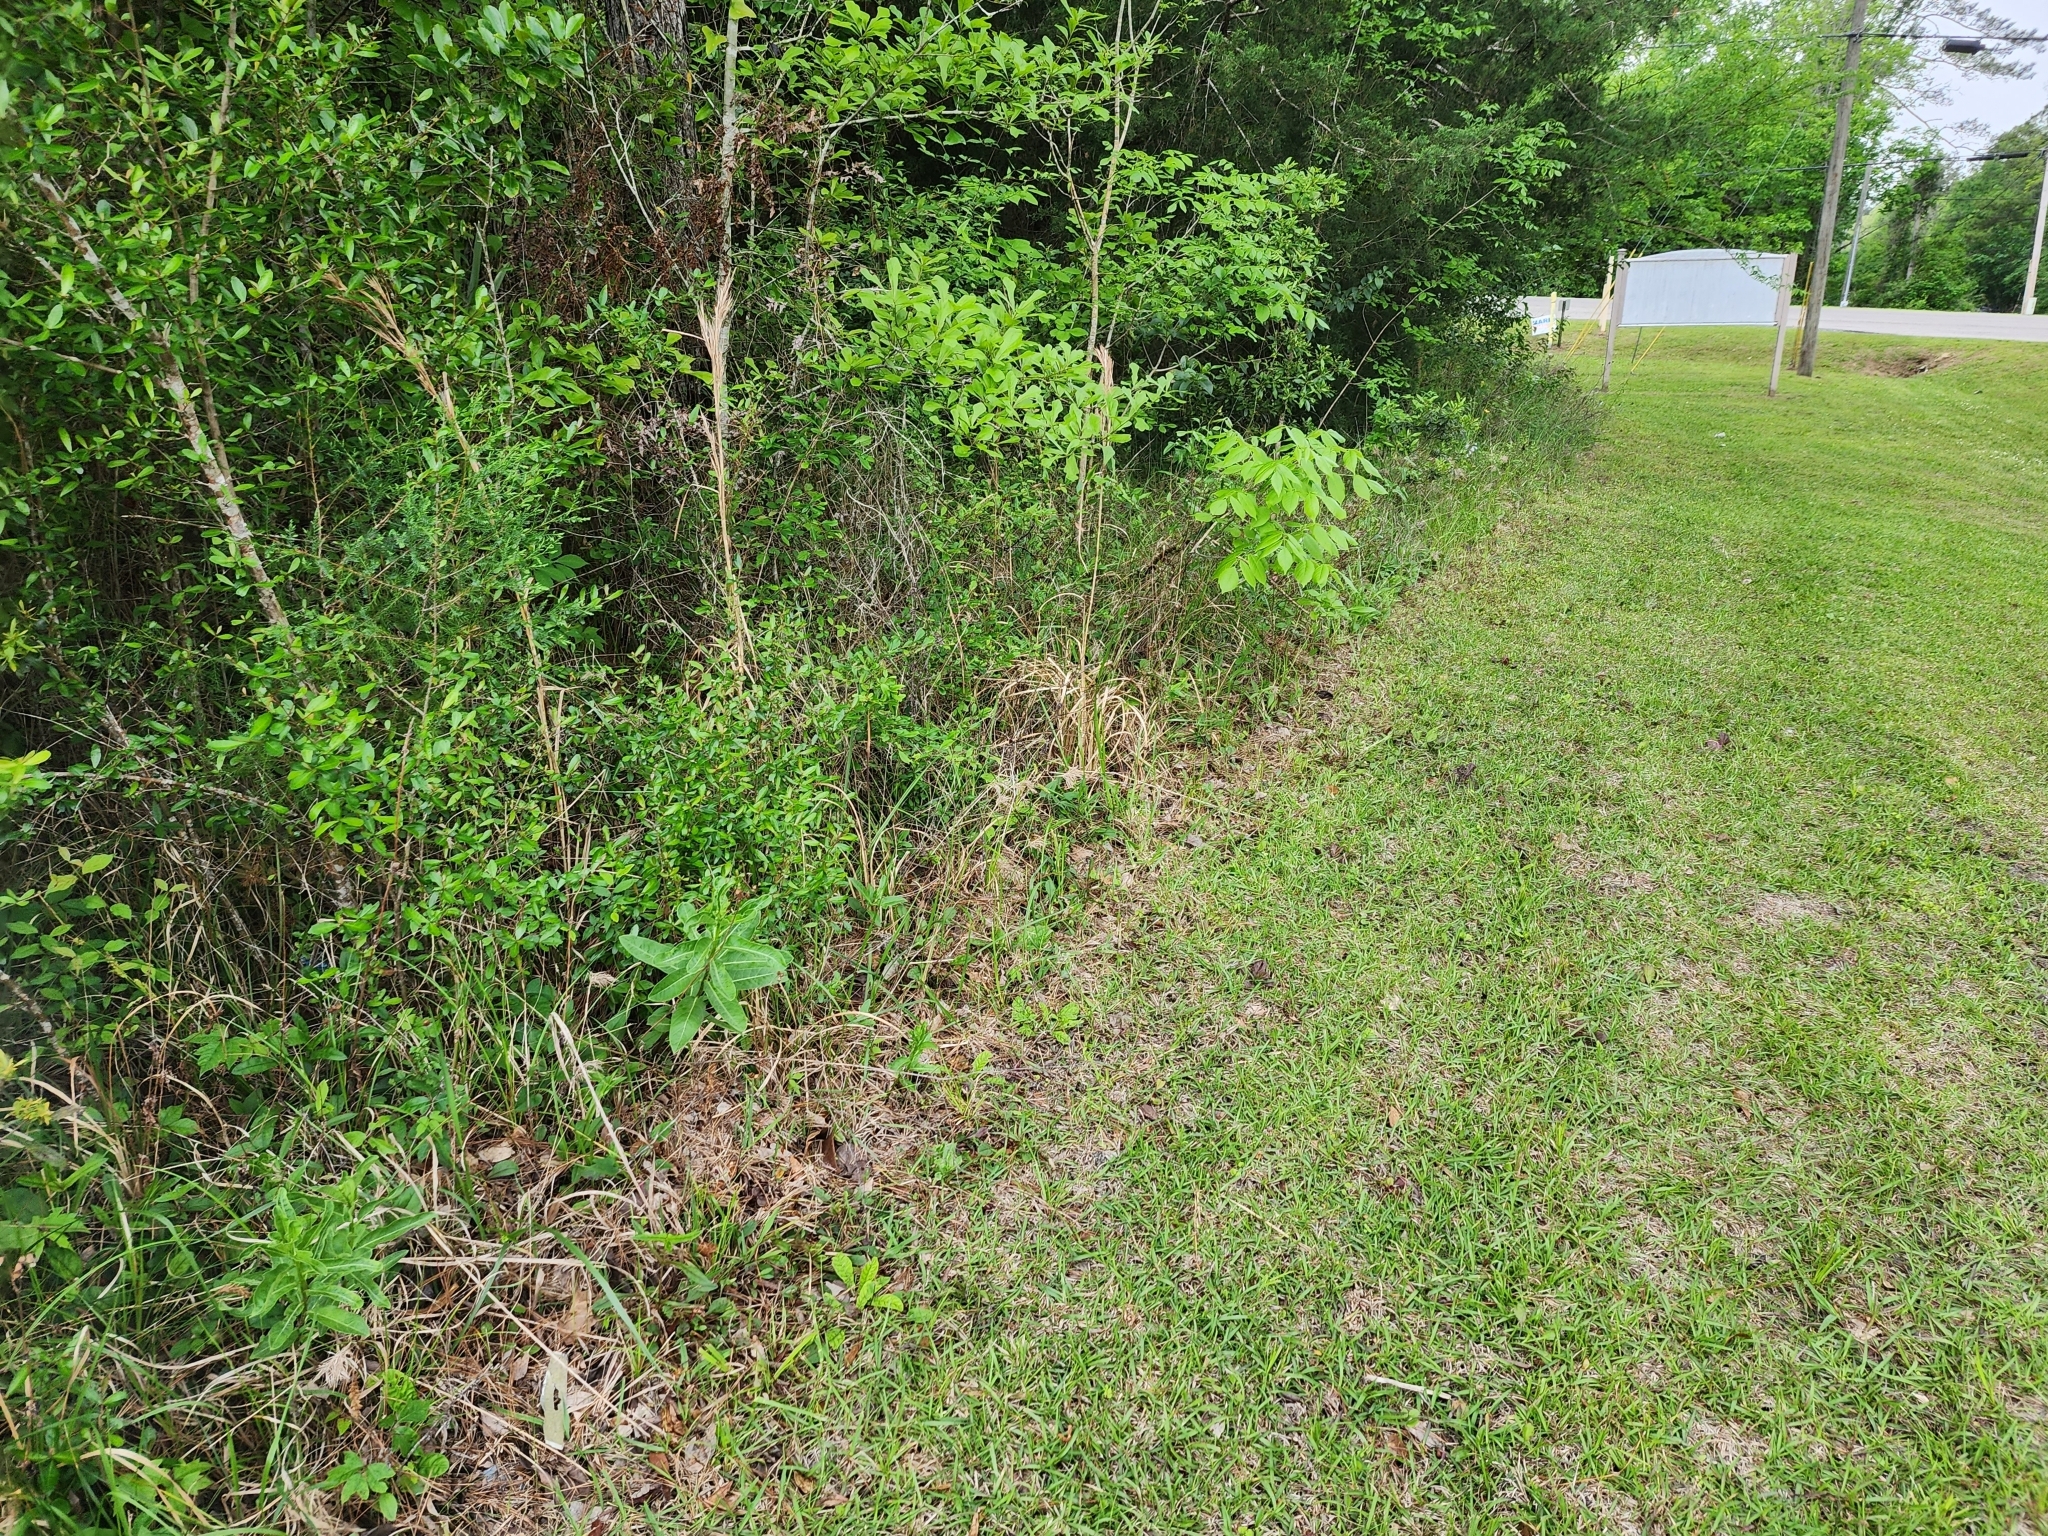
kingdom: Plantae
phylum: Tracheophyta
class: Magnoliopsida
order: Gentianales
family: Apocynaceae
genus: Asclepias
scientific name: Asclepias viridis
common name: Antelope-horns
